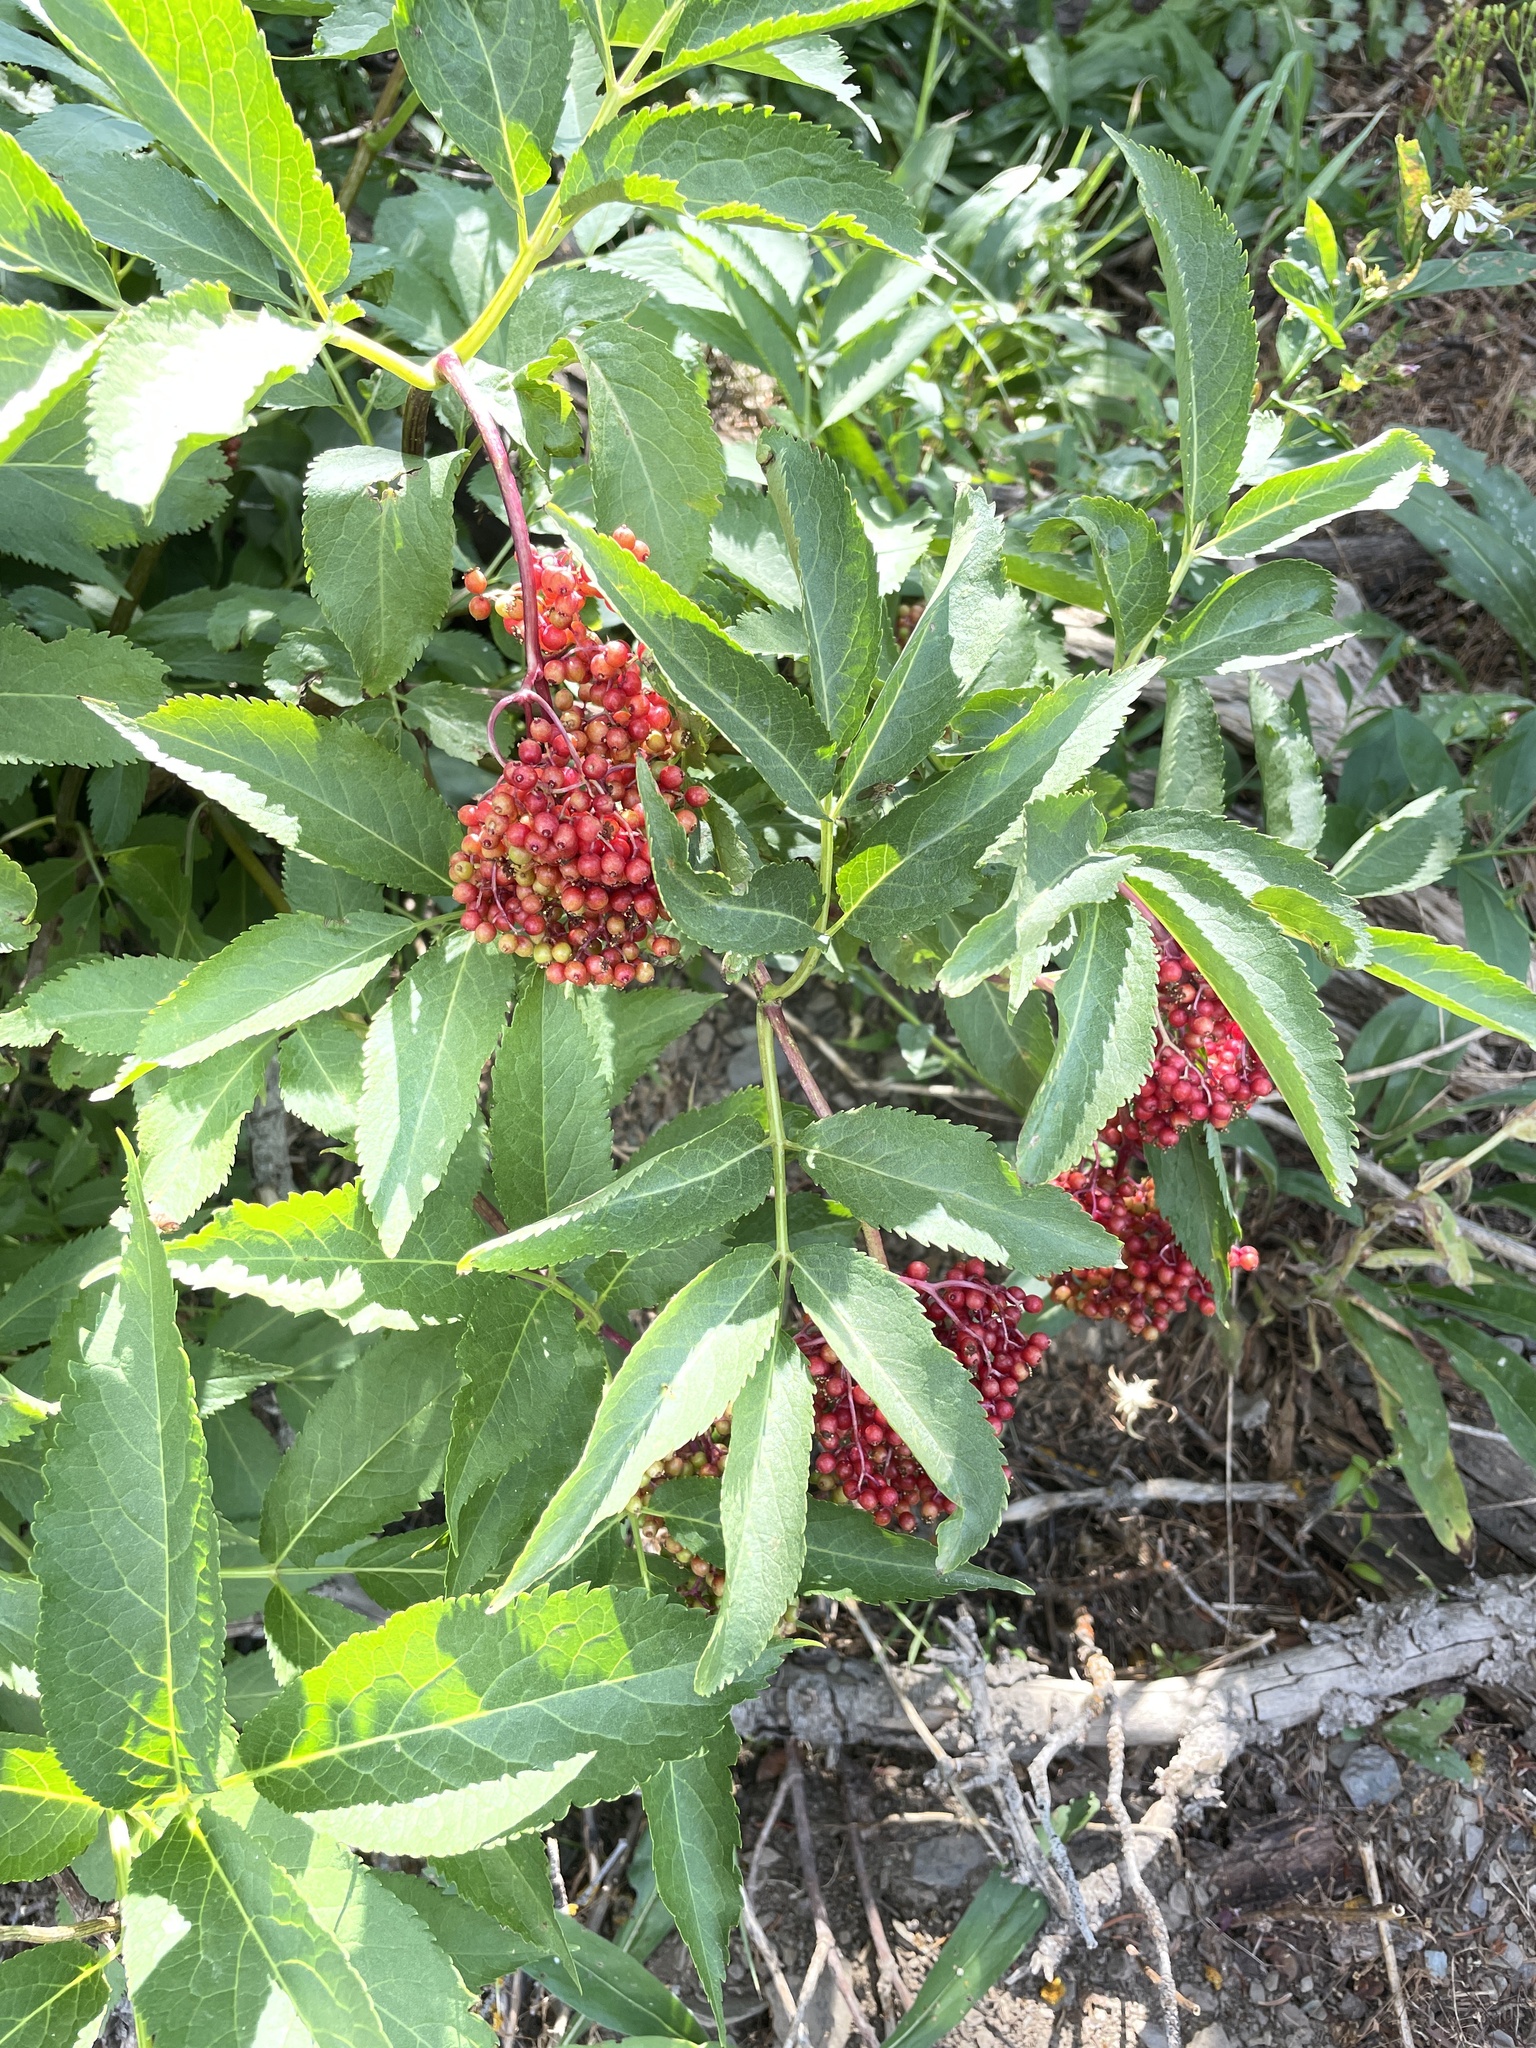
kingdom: Plantae
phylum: Tracheophyta
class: Magnoliopsida
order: Dipsacales
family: Viburnaceae
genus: Sambucus
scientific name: Sambucus racemosa
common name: Red-berried elder
